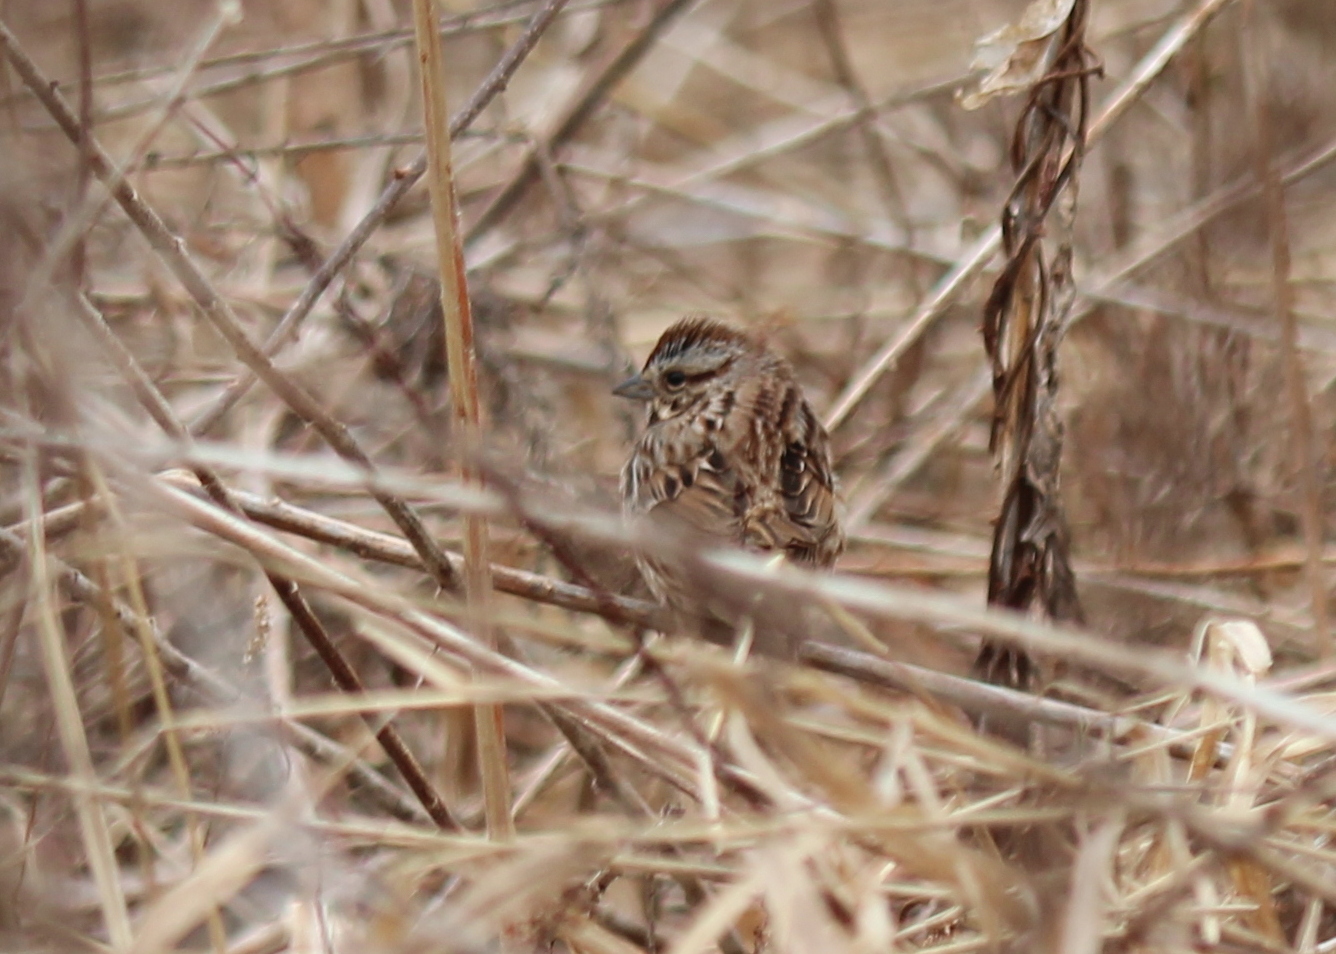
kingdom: Animalia
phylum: Chordata
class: Aves
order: Passeriformes
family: Passerellidae
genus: Melospiza
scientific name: Melospiza melodia
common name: Song sparrow
